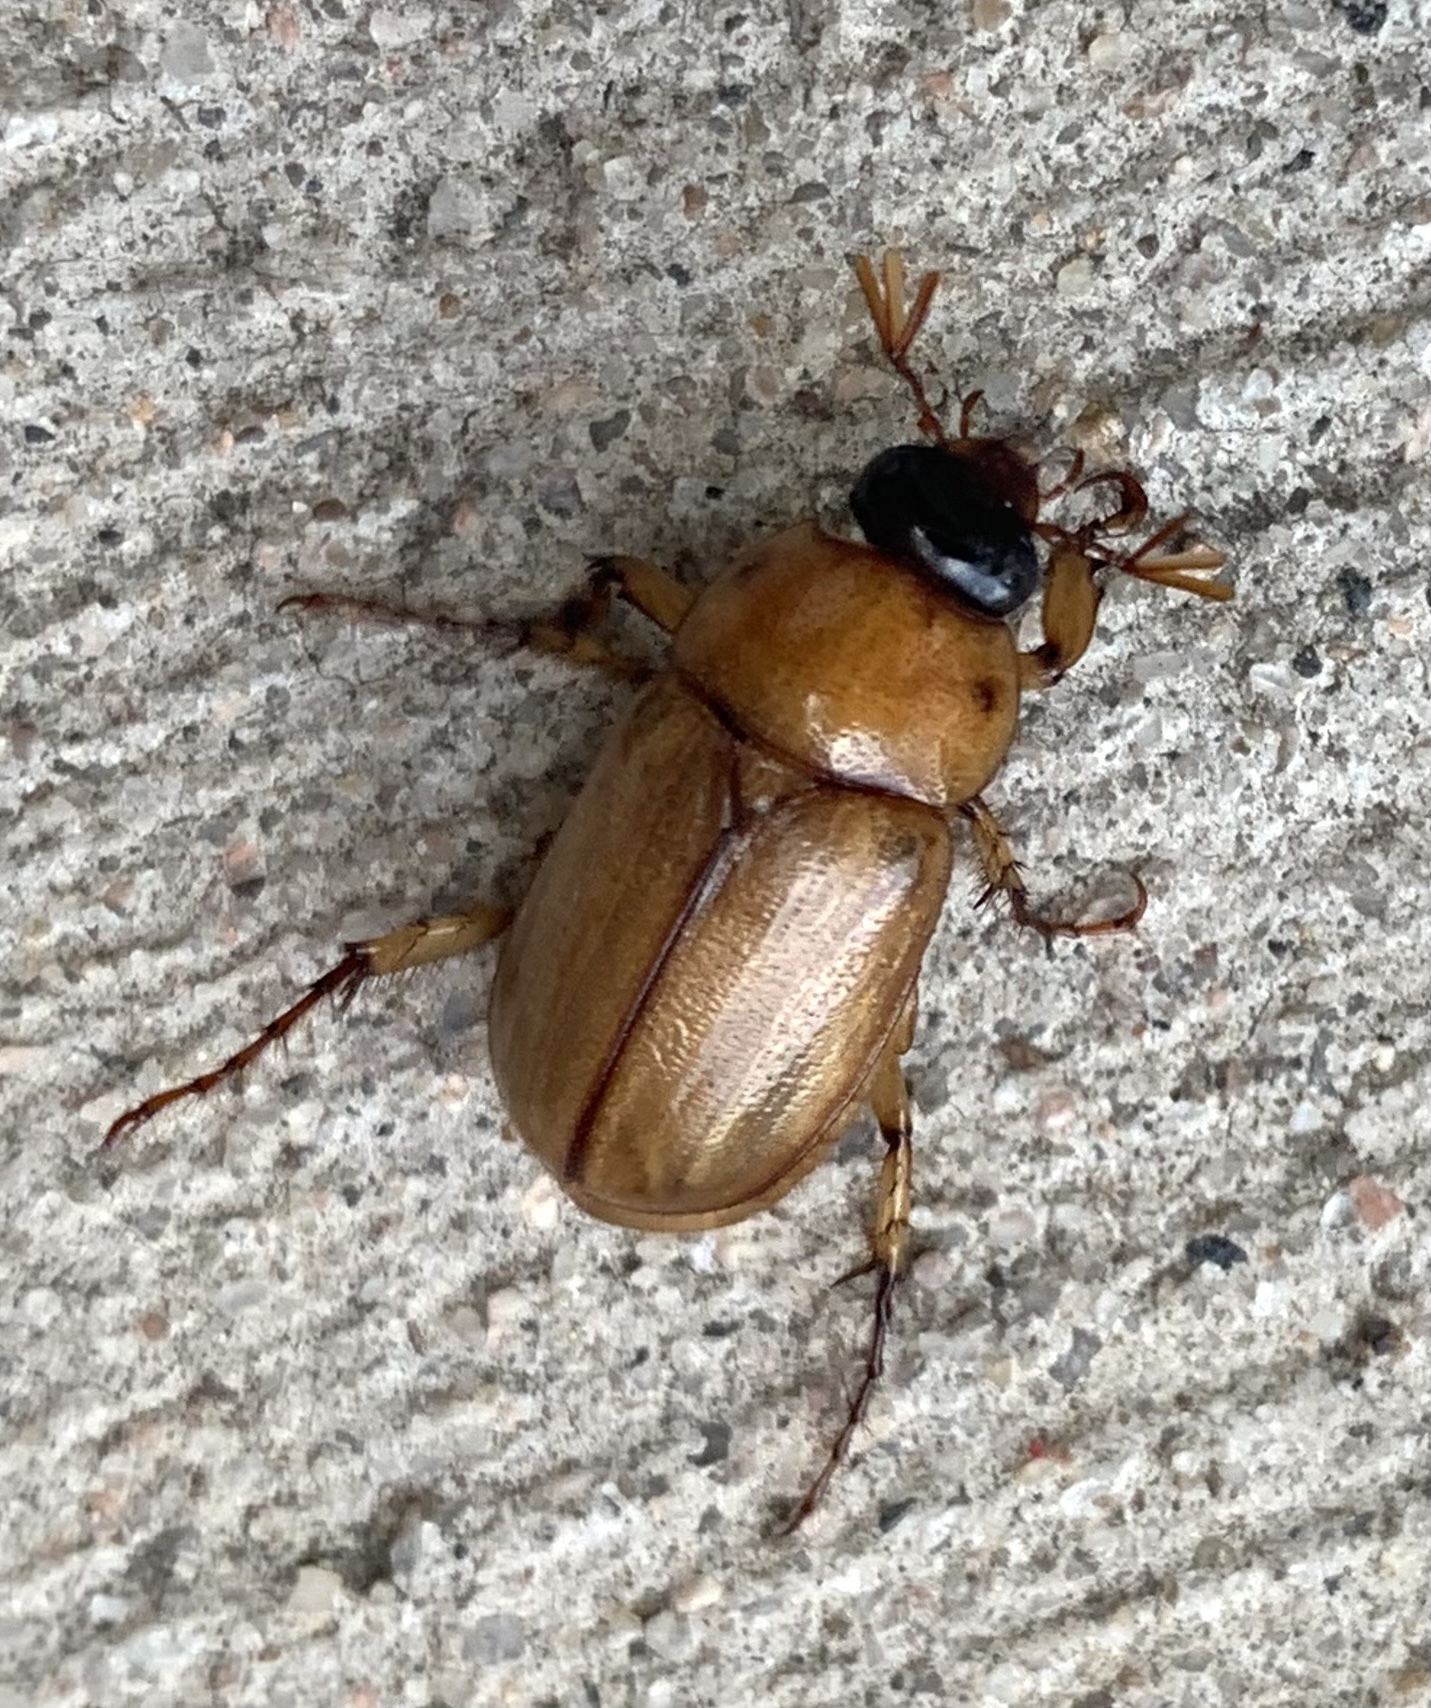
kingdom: Animalia
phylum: Arthropoda
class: Insecta
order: Coleoptera
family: Scarabaeidae
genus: Cyclocephala
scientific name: Cyclocephala lurida
